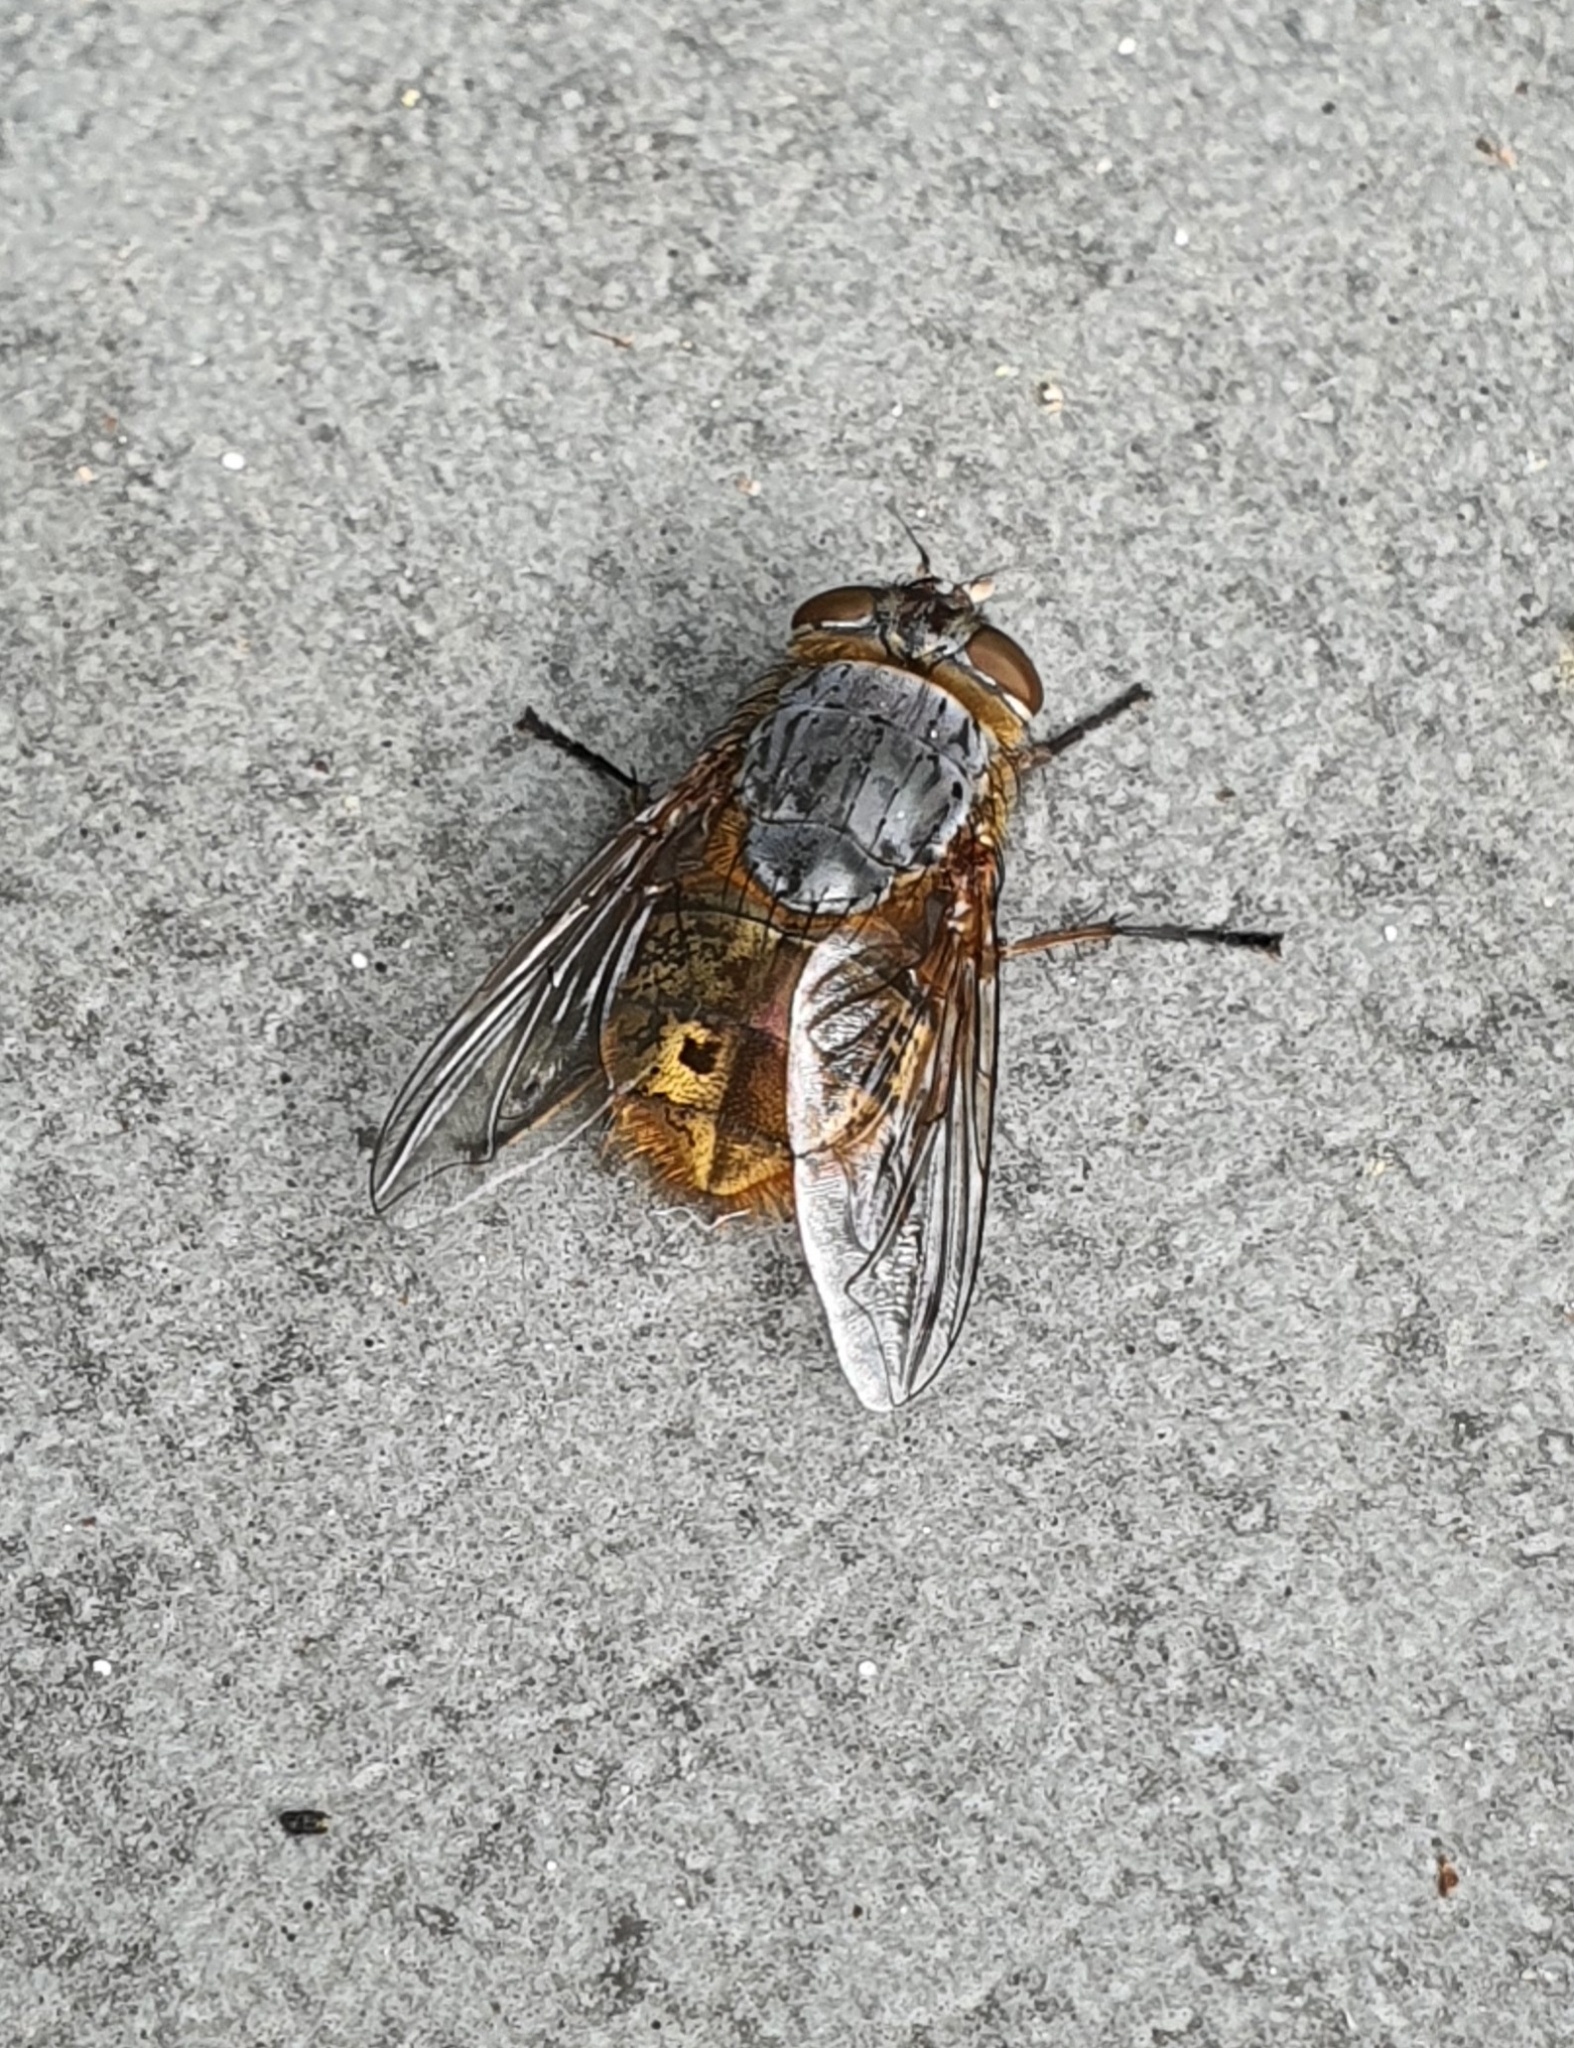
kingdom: Animalia
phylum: Arthropoda
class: Insecta
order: Diptera
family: Calliphoridae
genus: Calliphora
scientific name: Calliphora stygia
